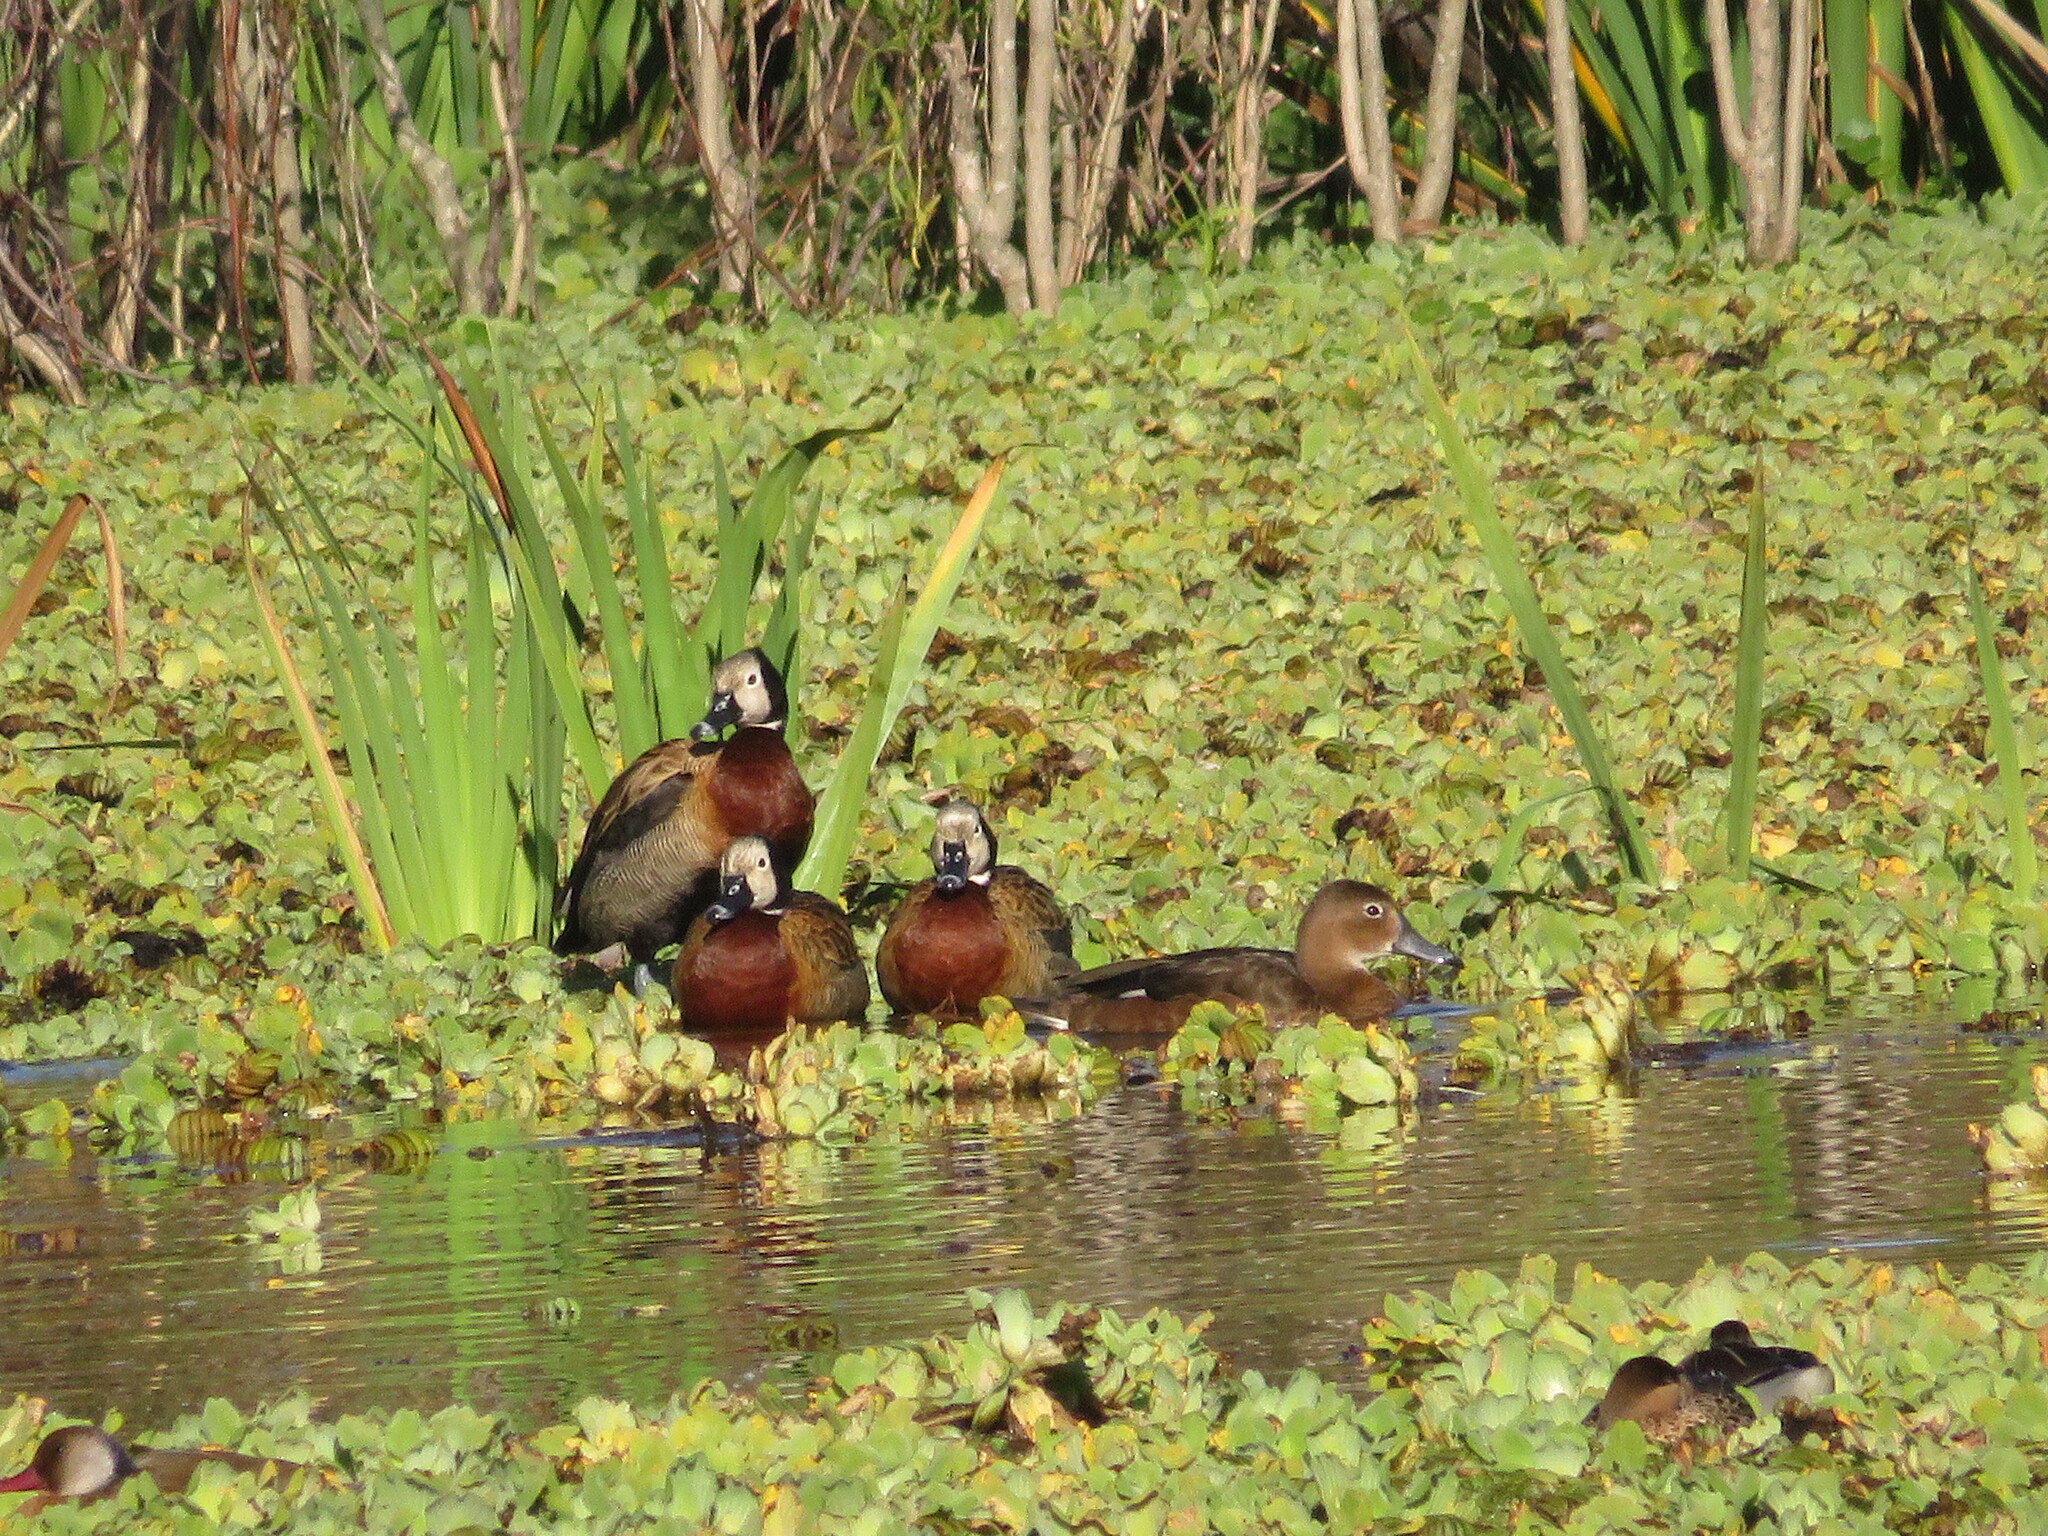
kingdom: Animalia
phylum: Chordata
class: Aves
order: Anseriformes
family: Anatidae
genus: Dendrocygna
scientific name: Dendrocygna viduata
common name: White-faced whistling duck
